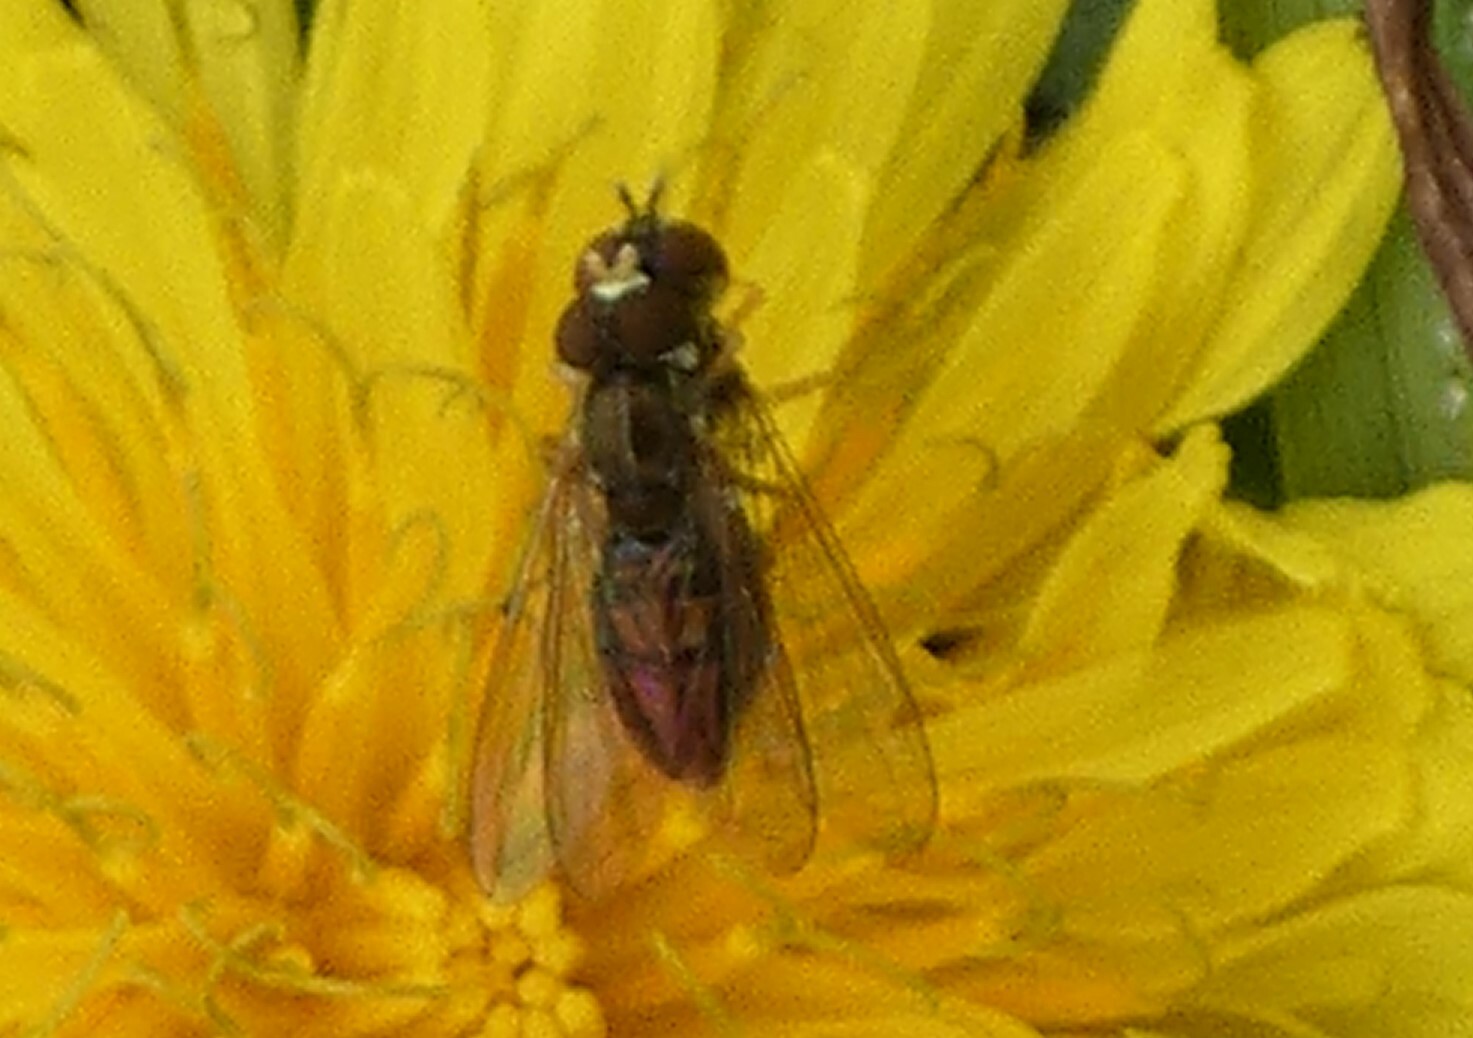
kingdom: Animalia
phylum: Arthropoda
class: Insecta
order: Diptera
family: Syrphidae
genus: Toxomerus
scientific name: Toxomerus marginatus
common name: Syrphid fly
